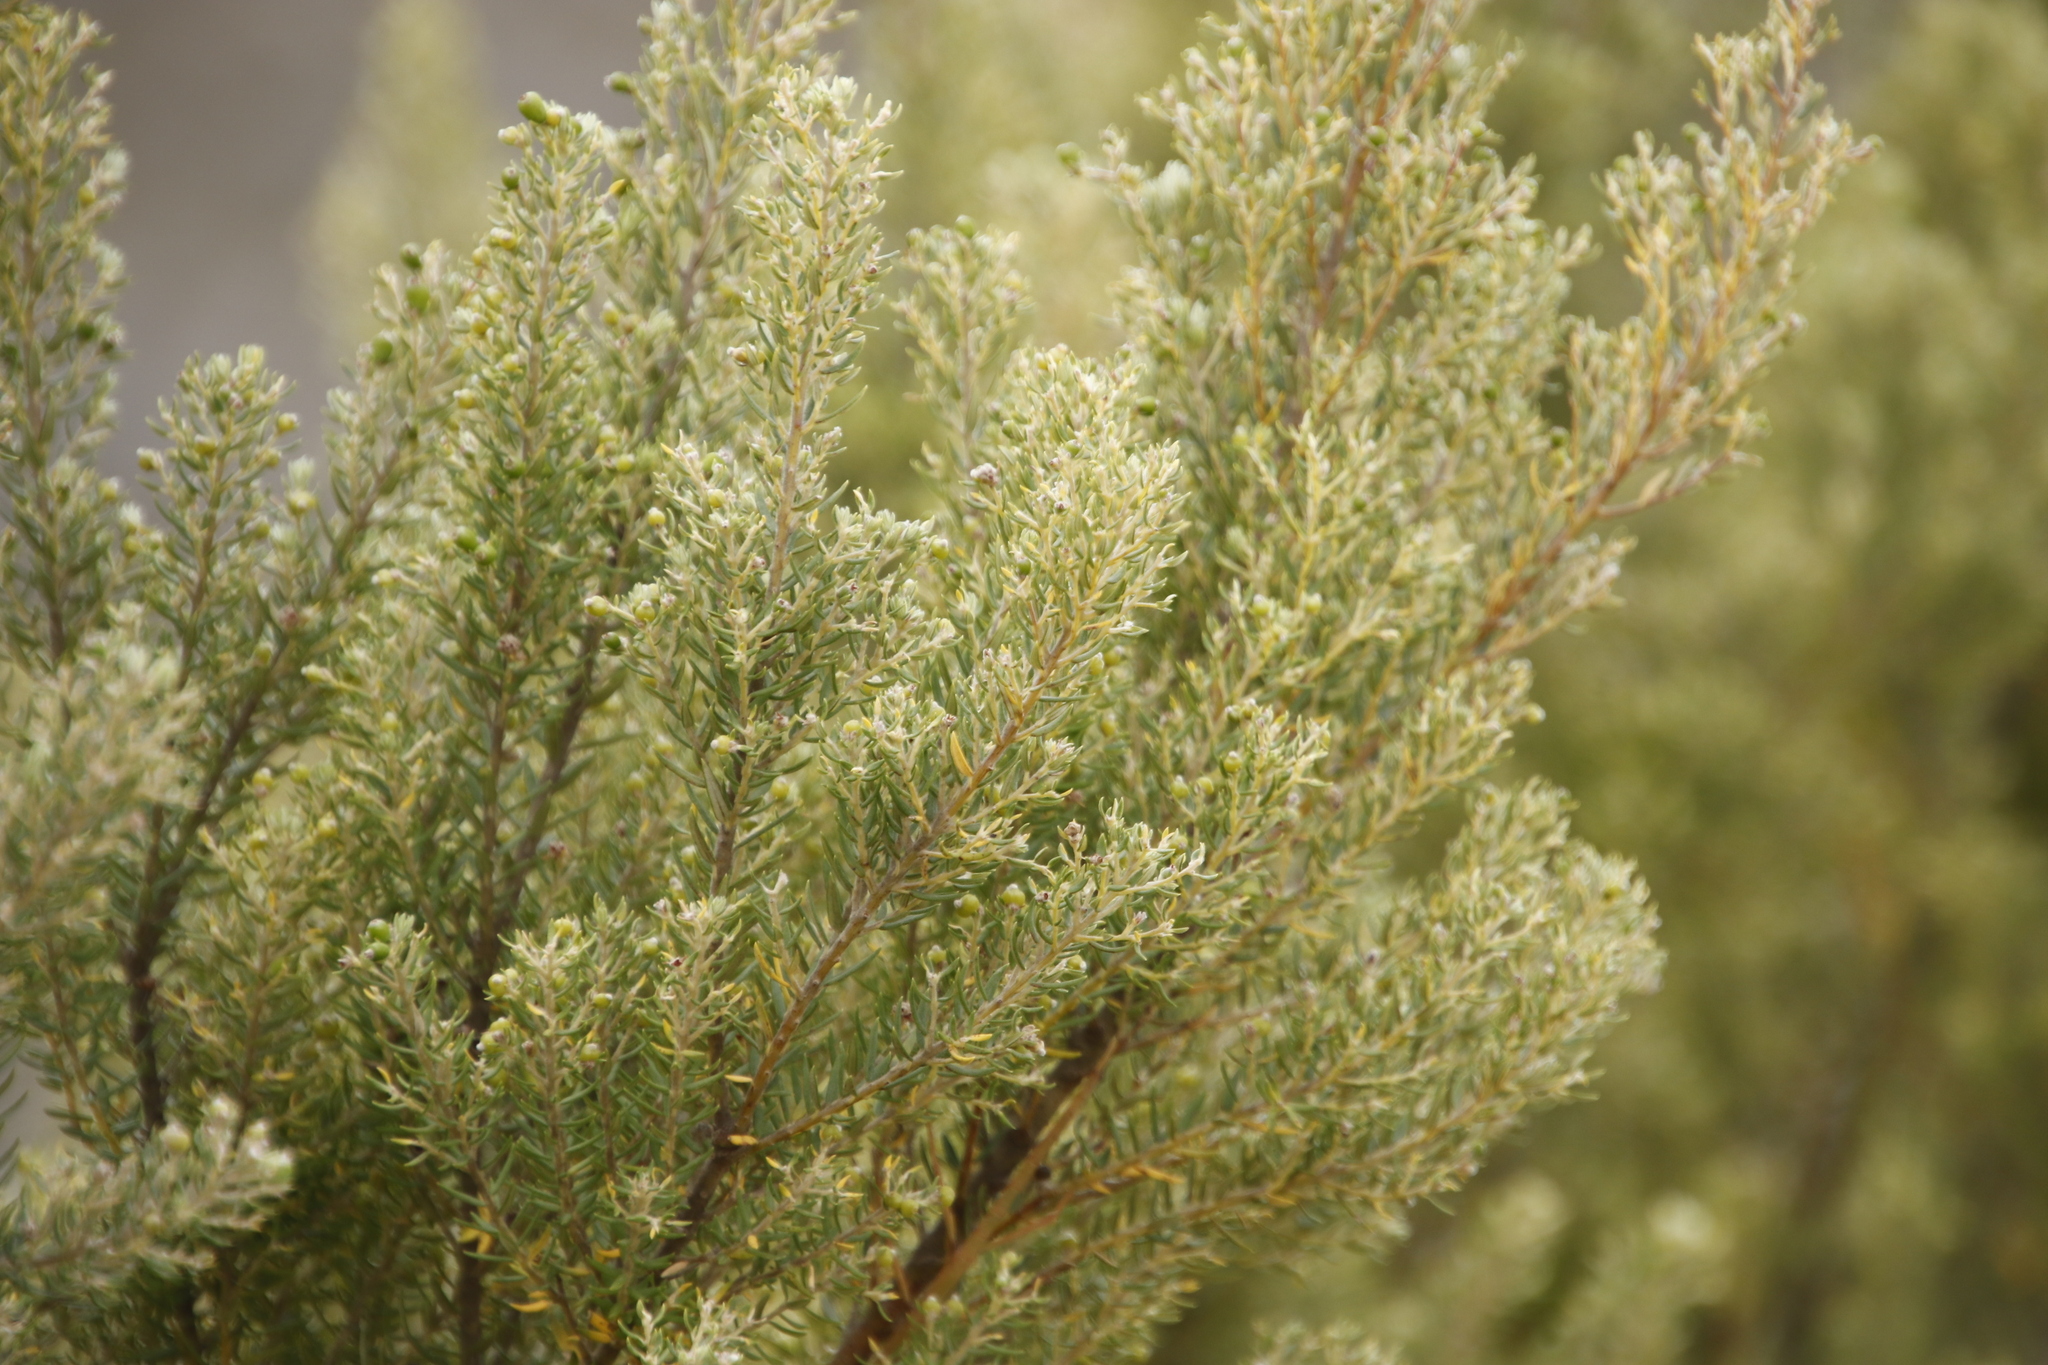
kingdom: Plantae
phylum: Tracheophyta
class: Magnoliopsida
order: Proteales
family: Proteaceae
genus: Leucadendron
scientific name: Leucadendron rubrum
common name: Spinning top
